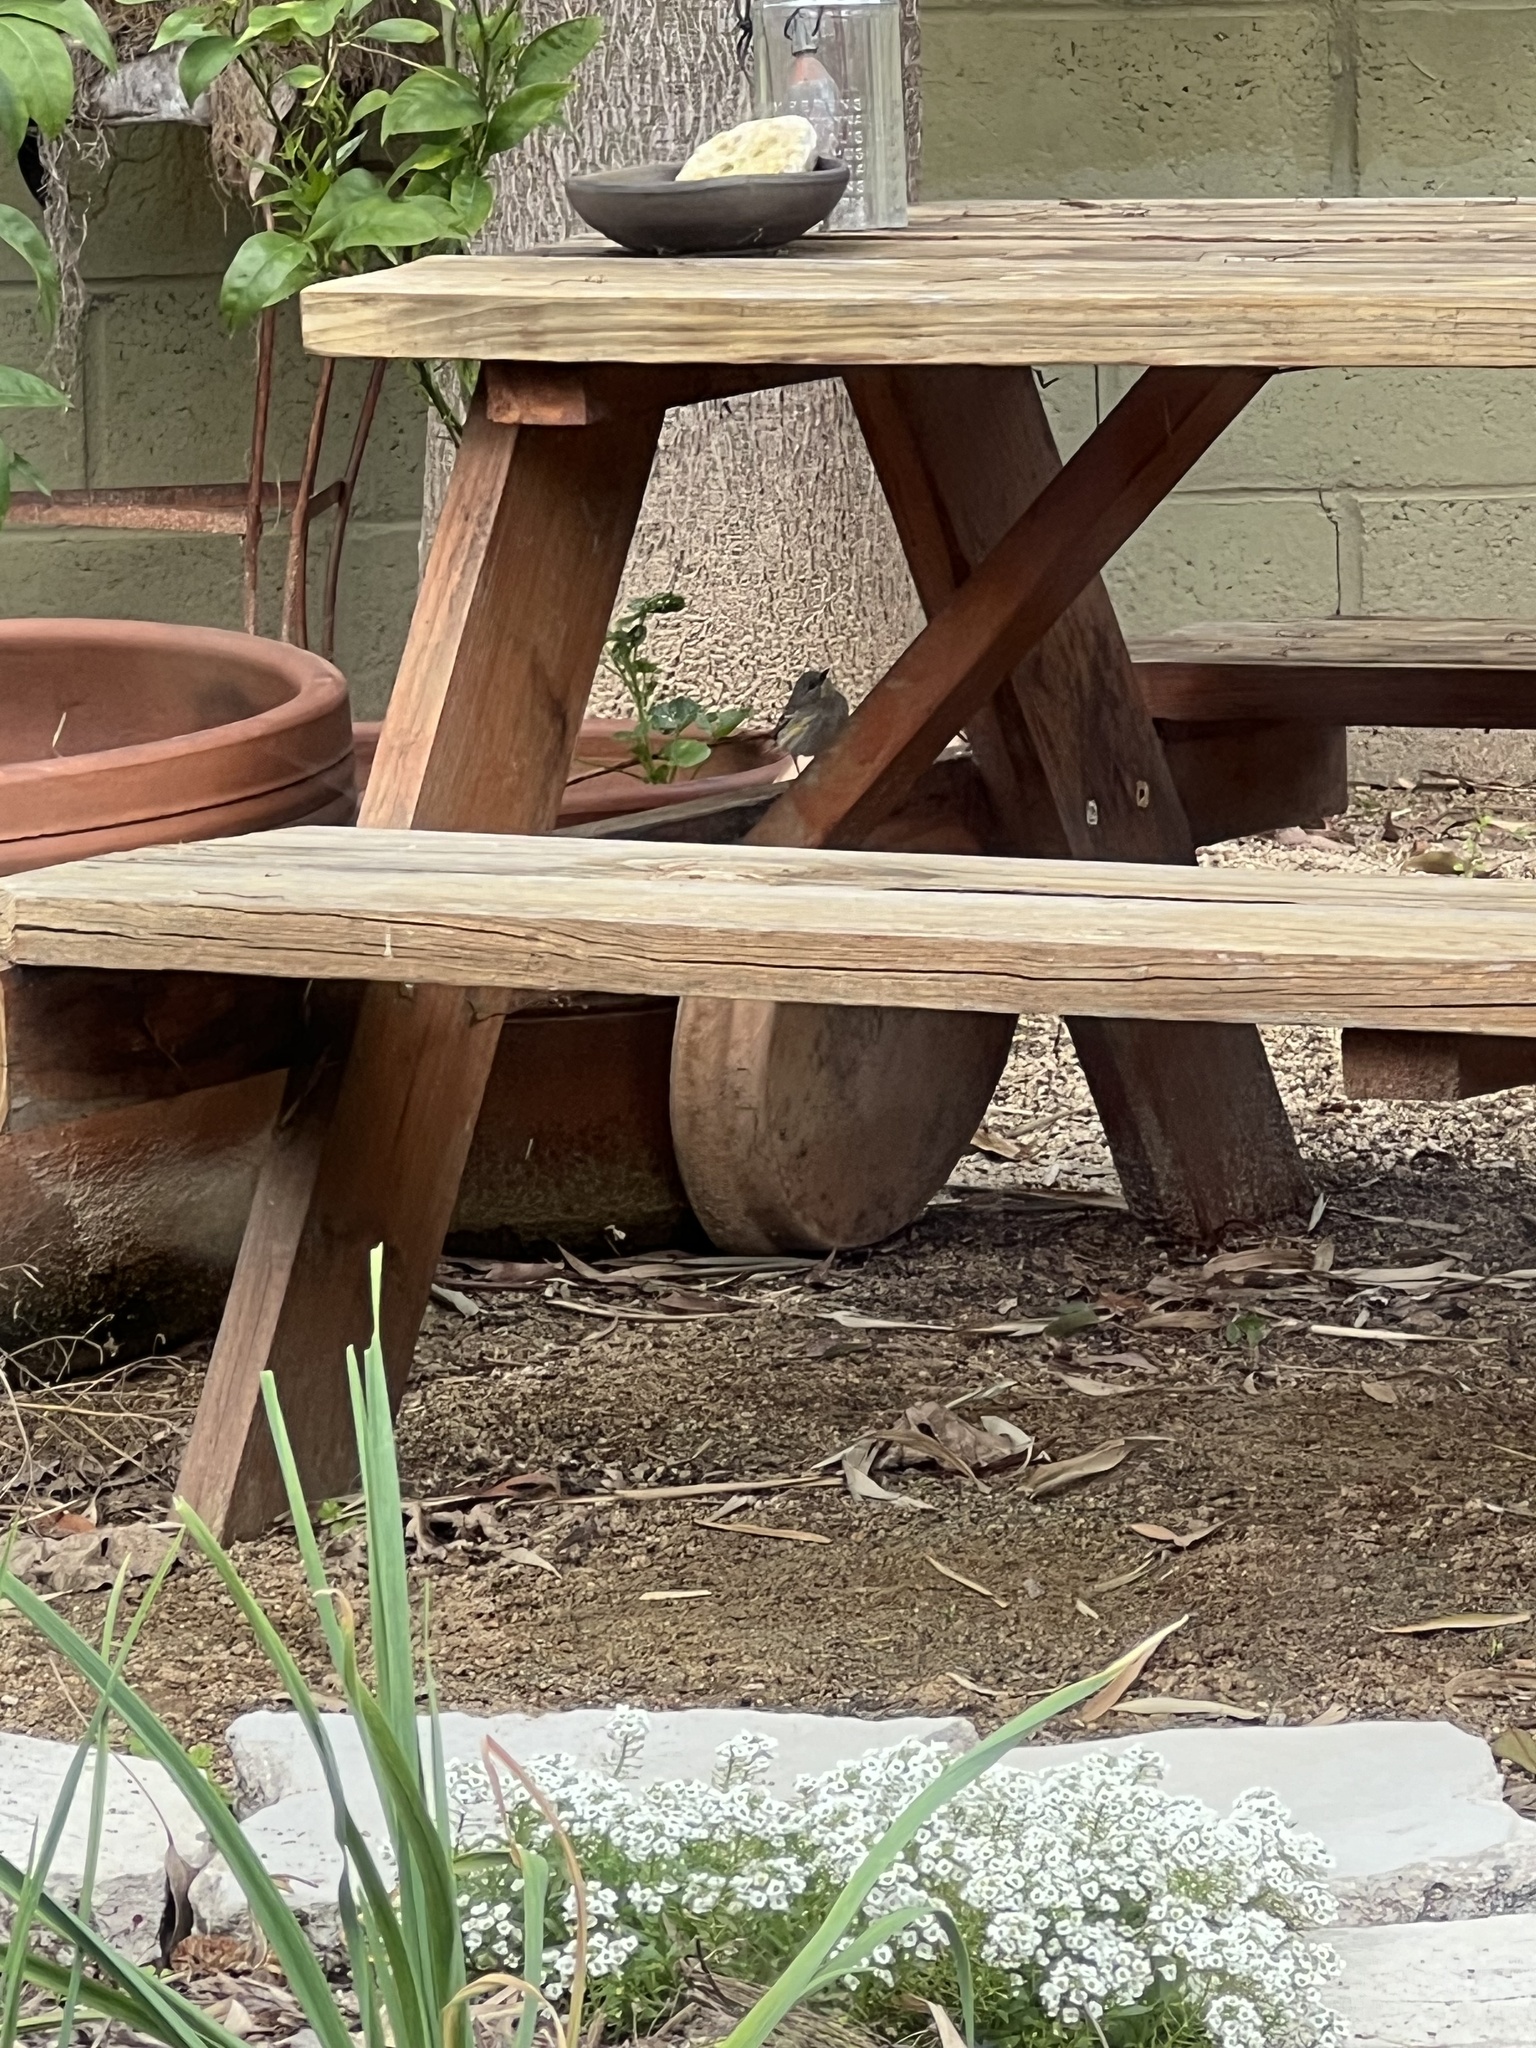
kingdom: Animalia
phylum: Chordata
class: Aves
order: Passeriformes
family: Parulidae
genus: Setophaga
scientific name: Setophaga coronata
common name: Myrtle warbler
